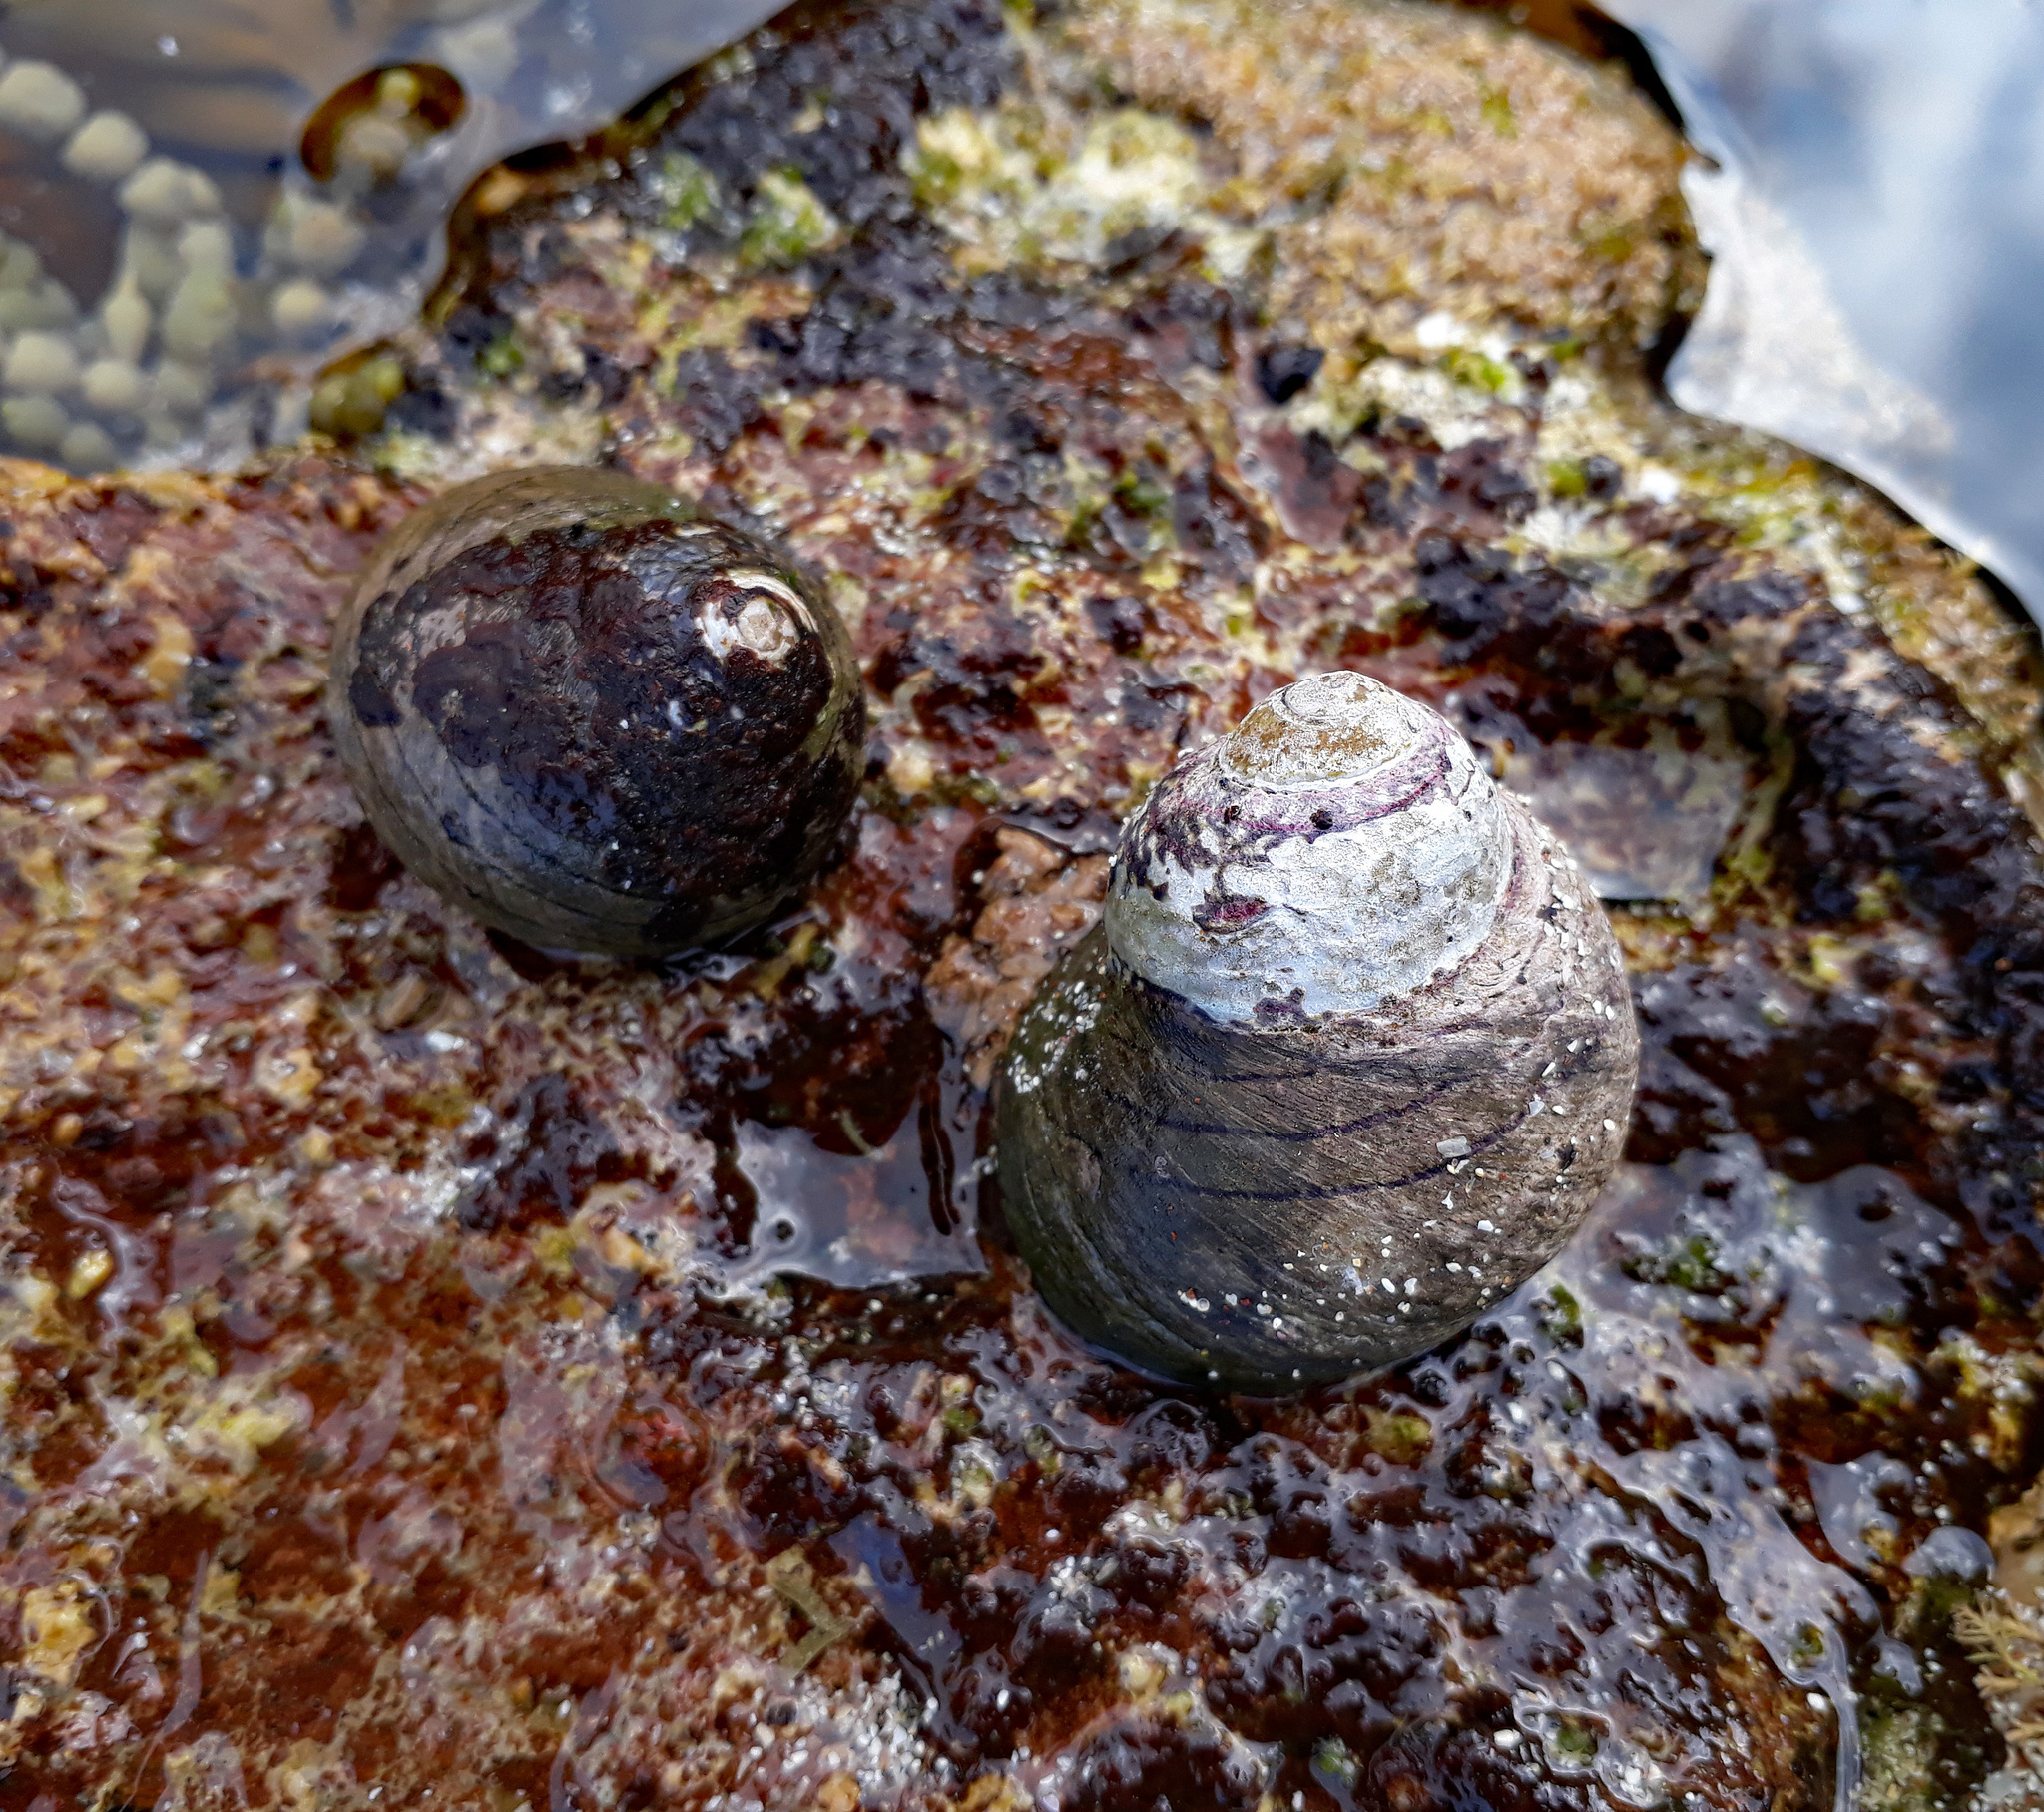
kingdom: Animalia
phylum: Mollusca
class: Gastropoda
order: Trochida
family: Trochidae
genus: Diloma
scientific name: Diloma aethiops
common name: Scorched monodont
